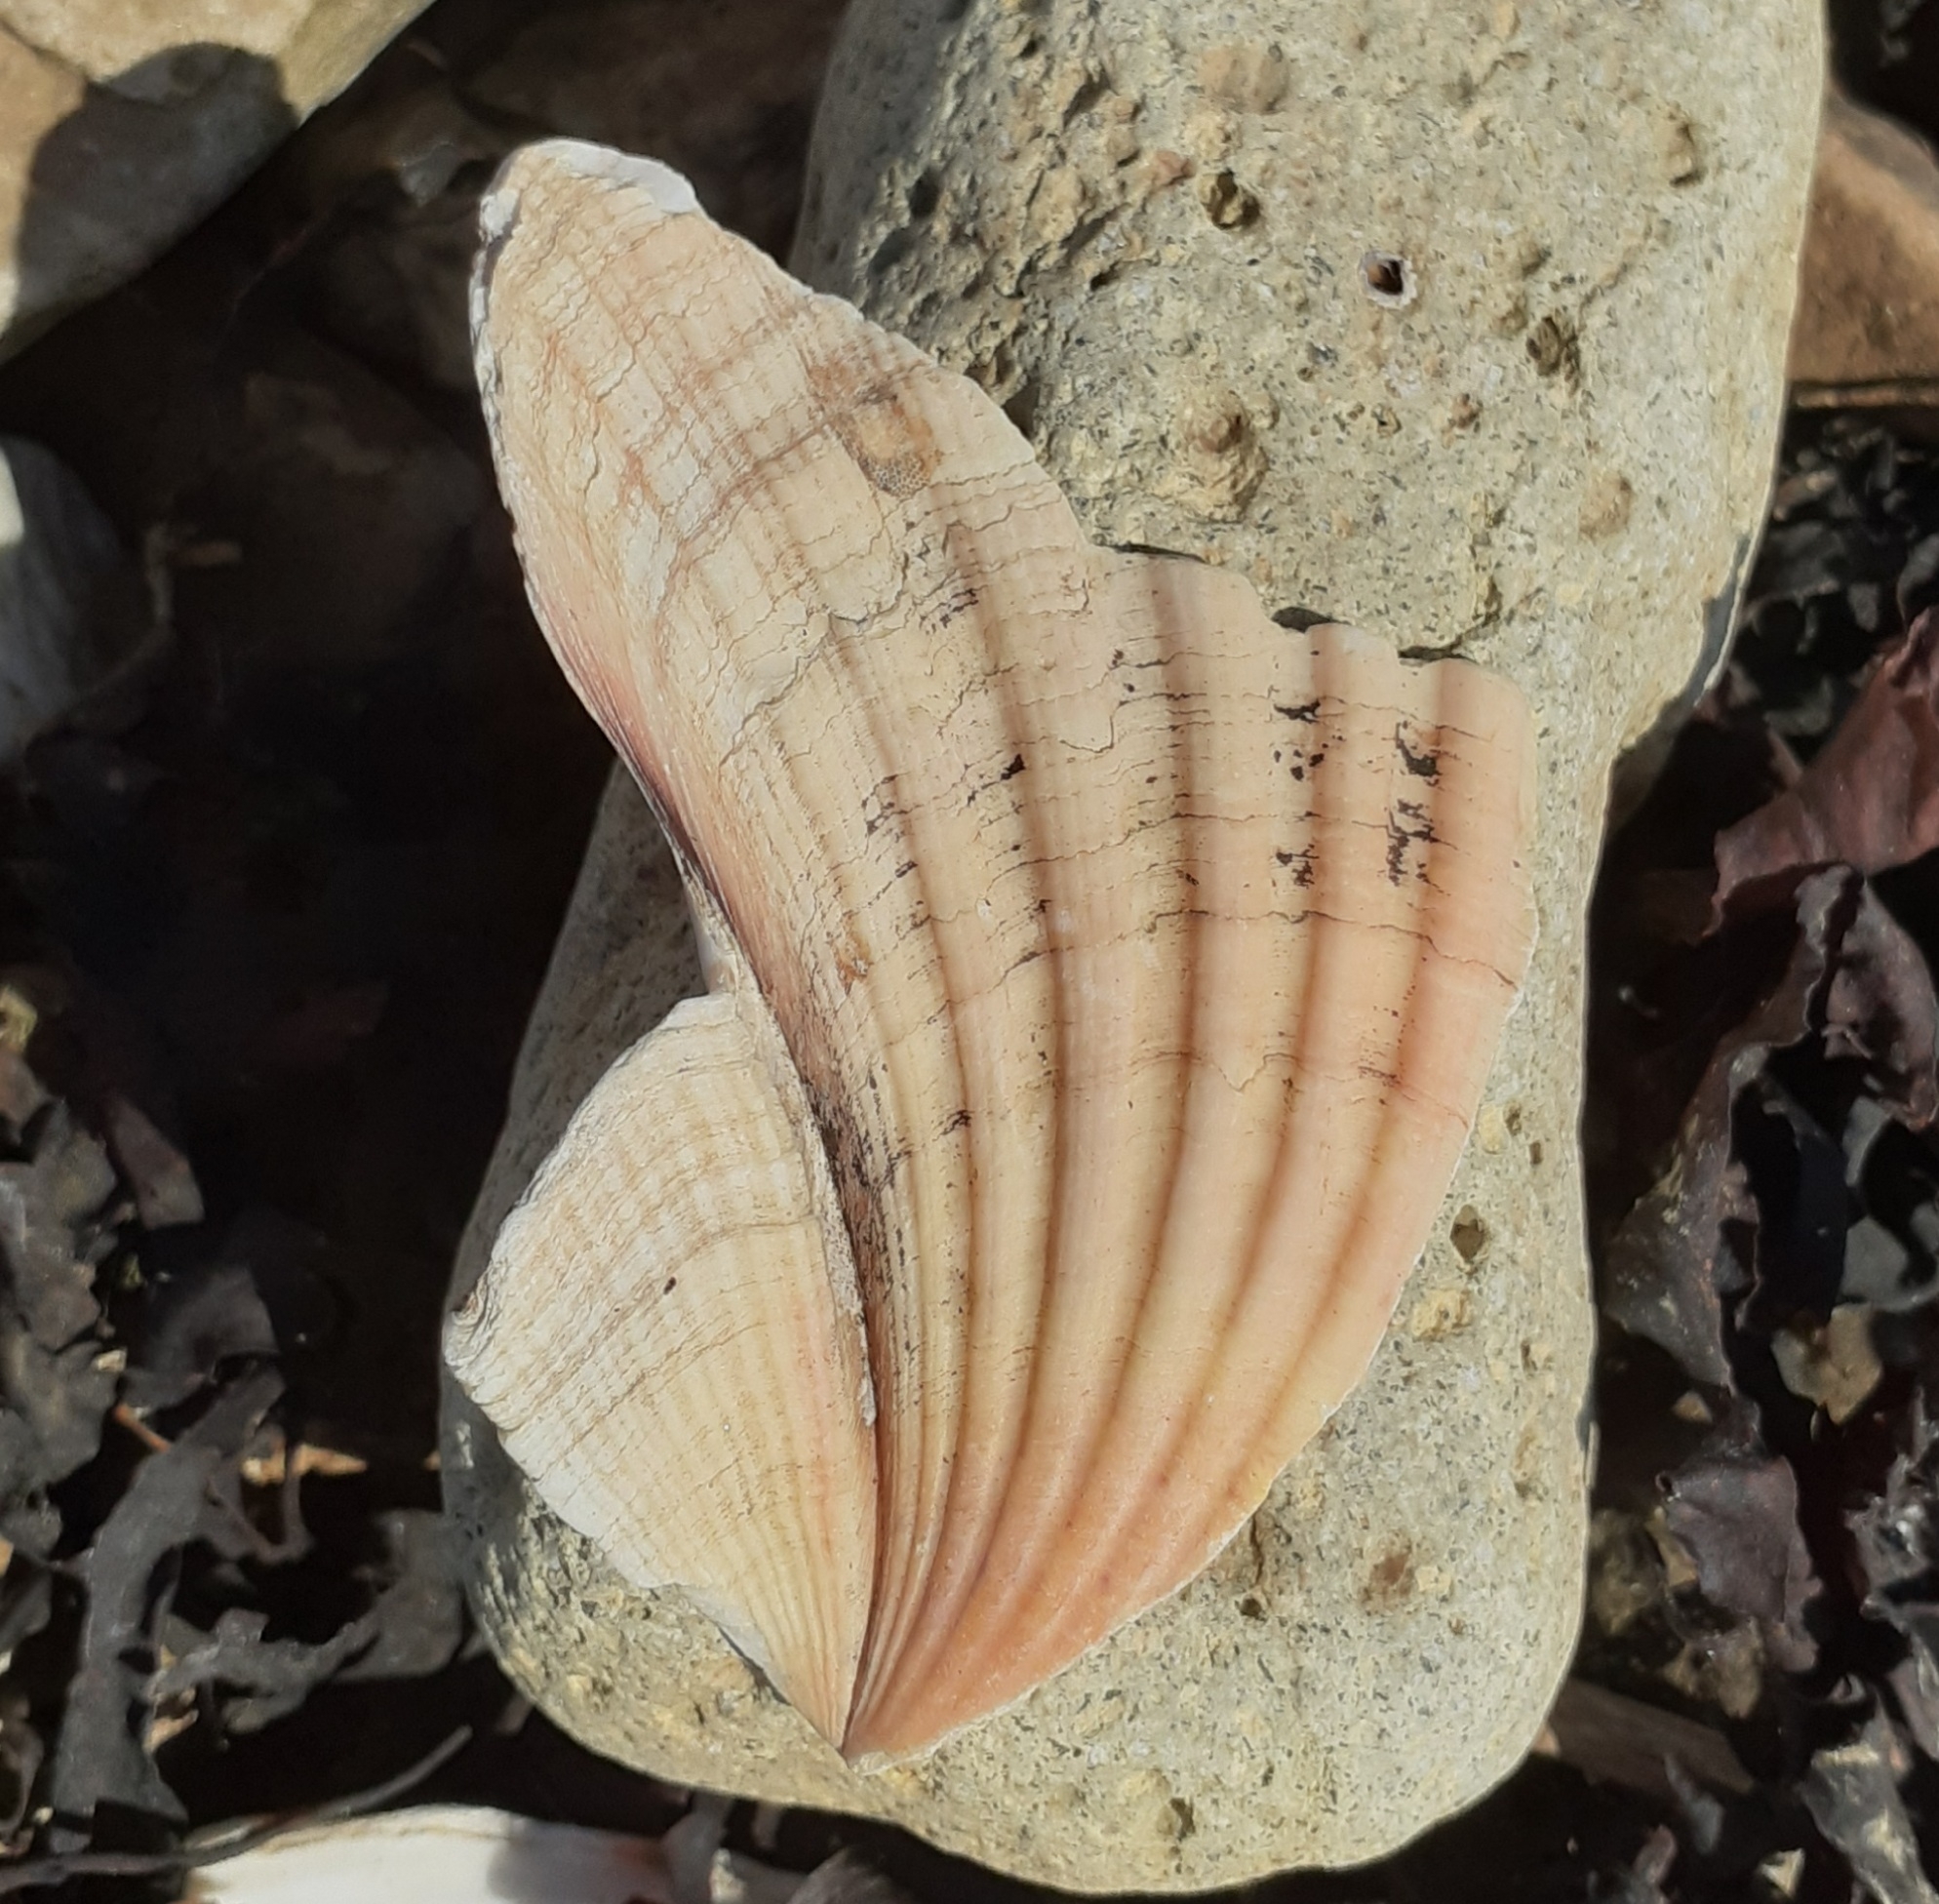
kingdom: Animalia
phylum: Mollusca
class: Bivalvia
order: Pectinida
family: Pectinidae
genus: Pecten
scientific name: Pecten maximus
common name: Great scallop
